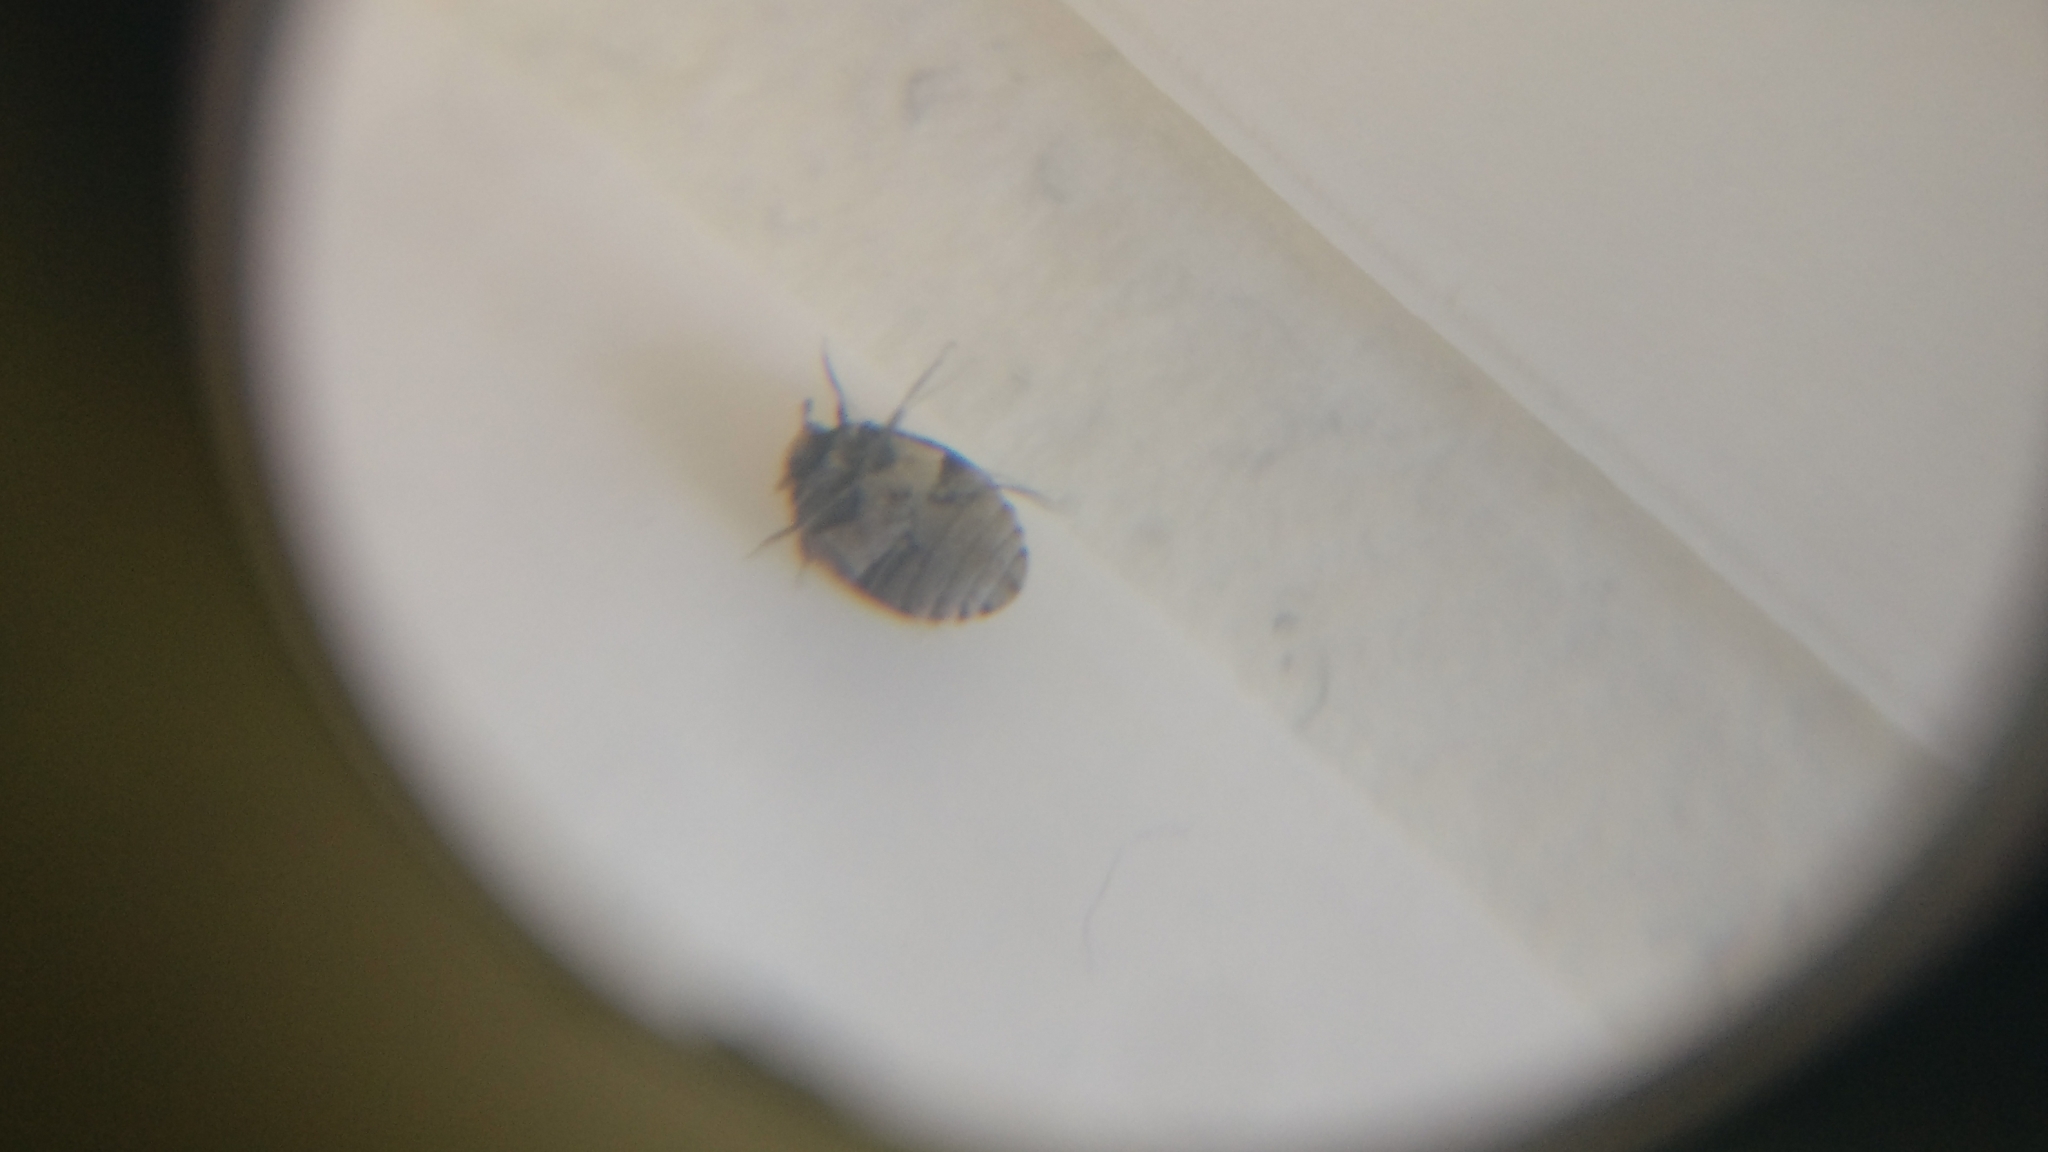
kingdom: Animalia
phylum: Arthropoda
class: Insecta
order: Coleoptera
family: Dermestidae
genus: Anthrenus
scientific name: Anthrenus verbasci
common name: Varied carpet beetle
